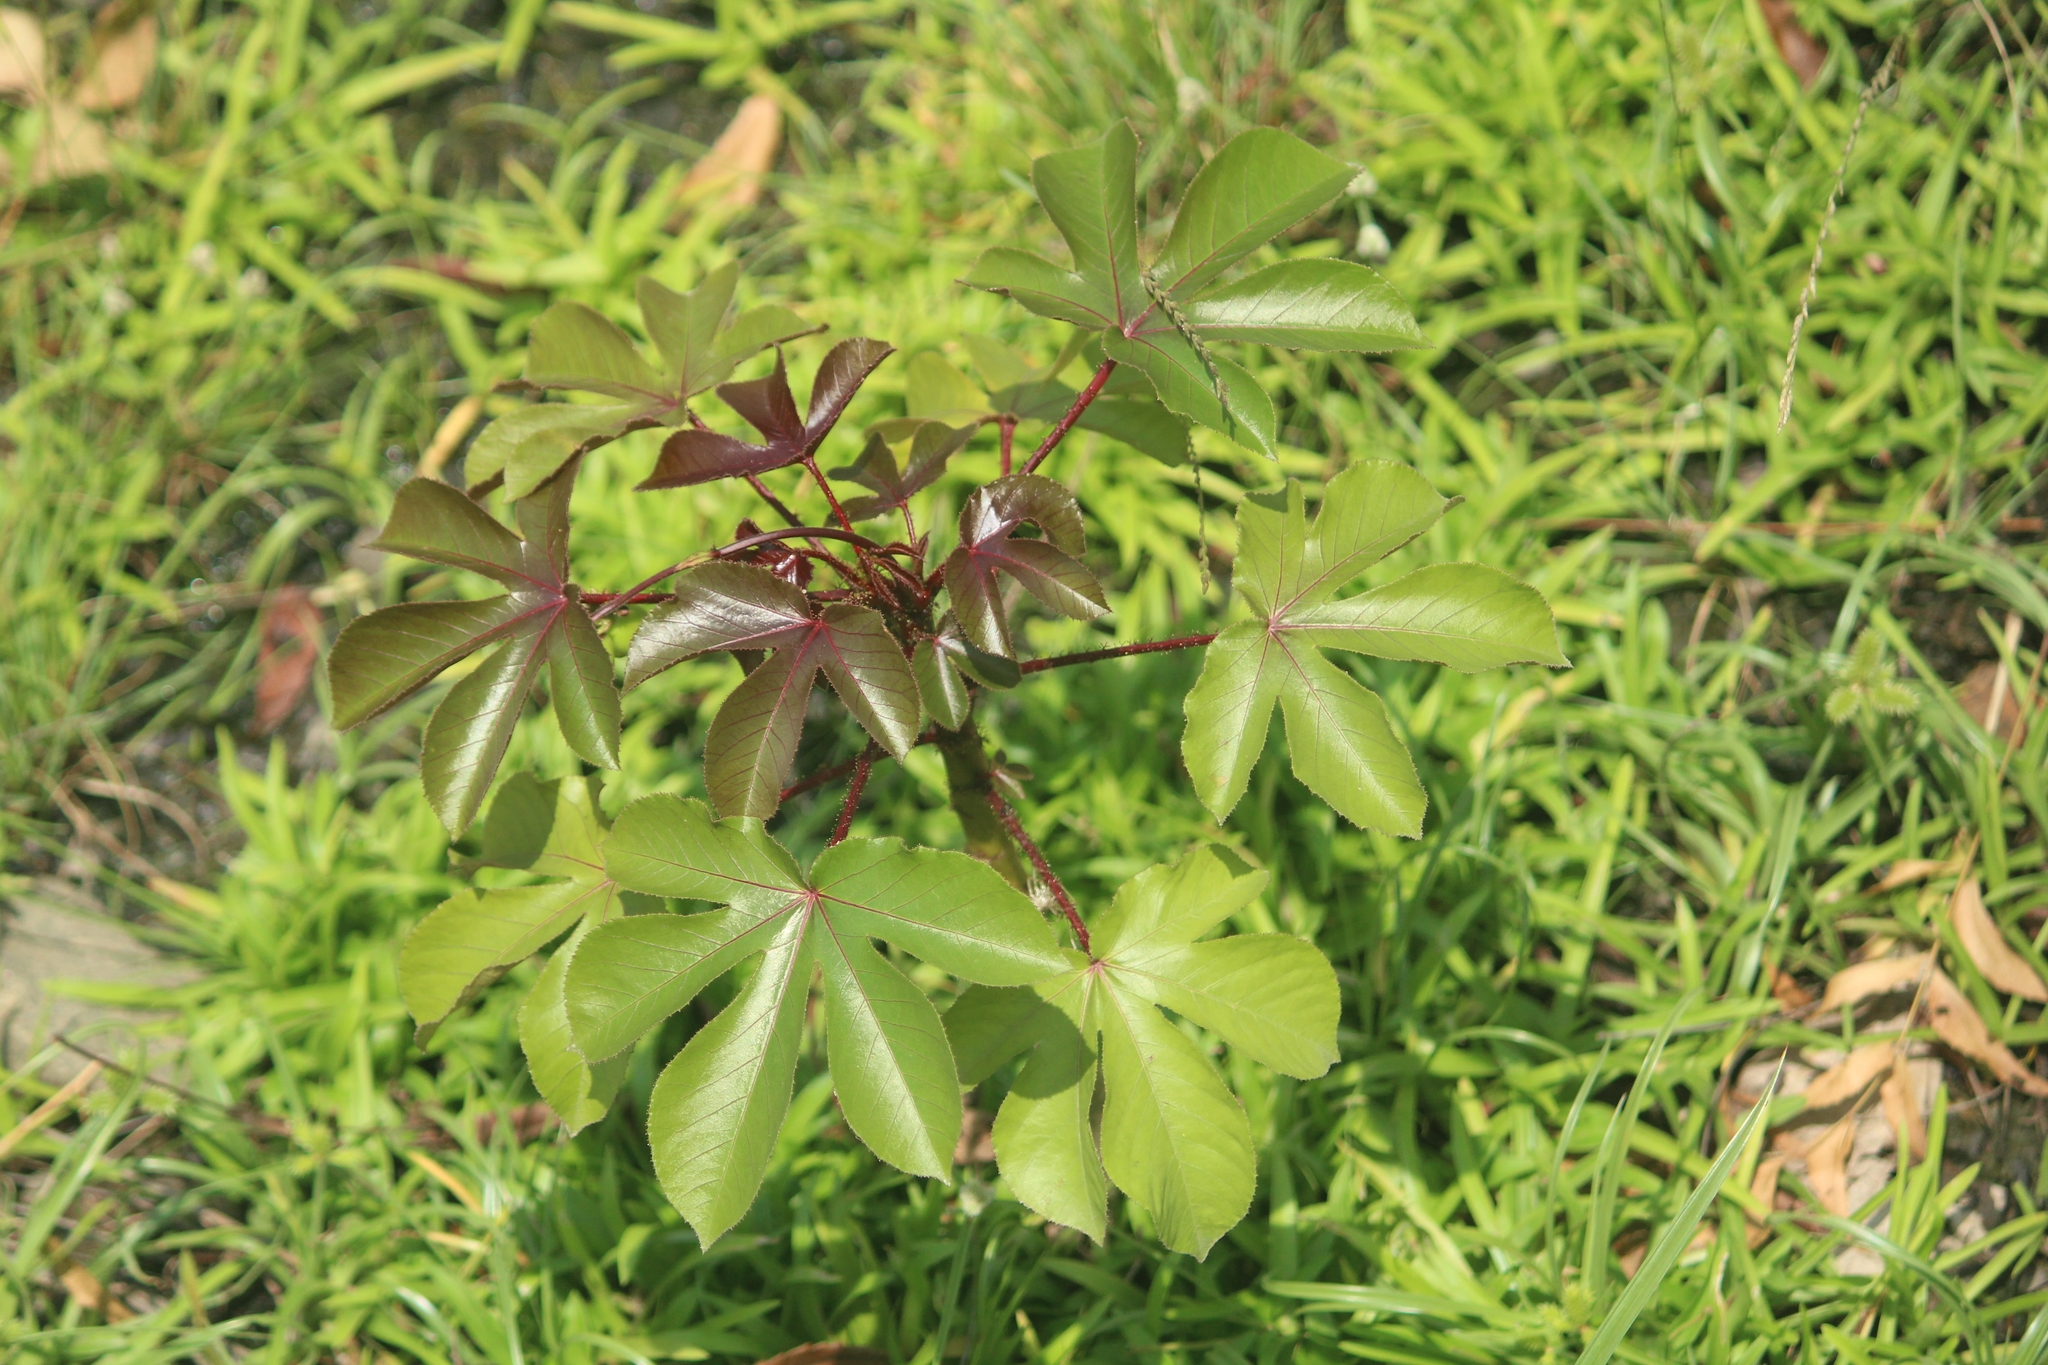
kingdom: Plantae
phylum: Tracheophyta
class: Magnoliopsida
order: Malpighiales
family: Euphorbiaceae
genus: Jatropha
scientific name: Jatropha gossypiifolia
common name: Bellyache bush
